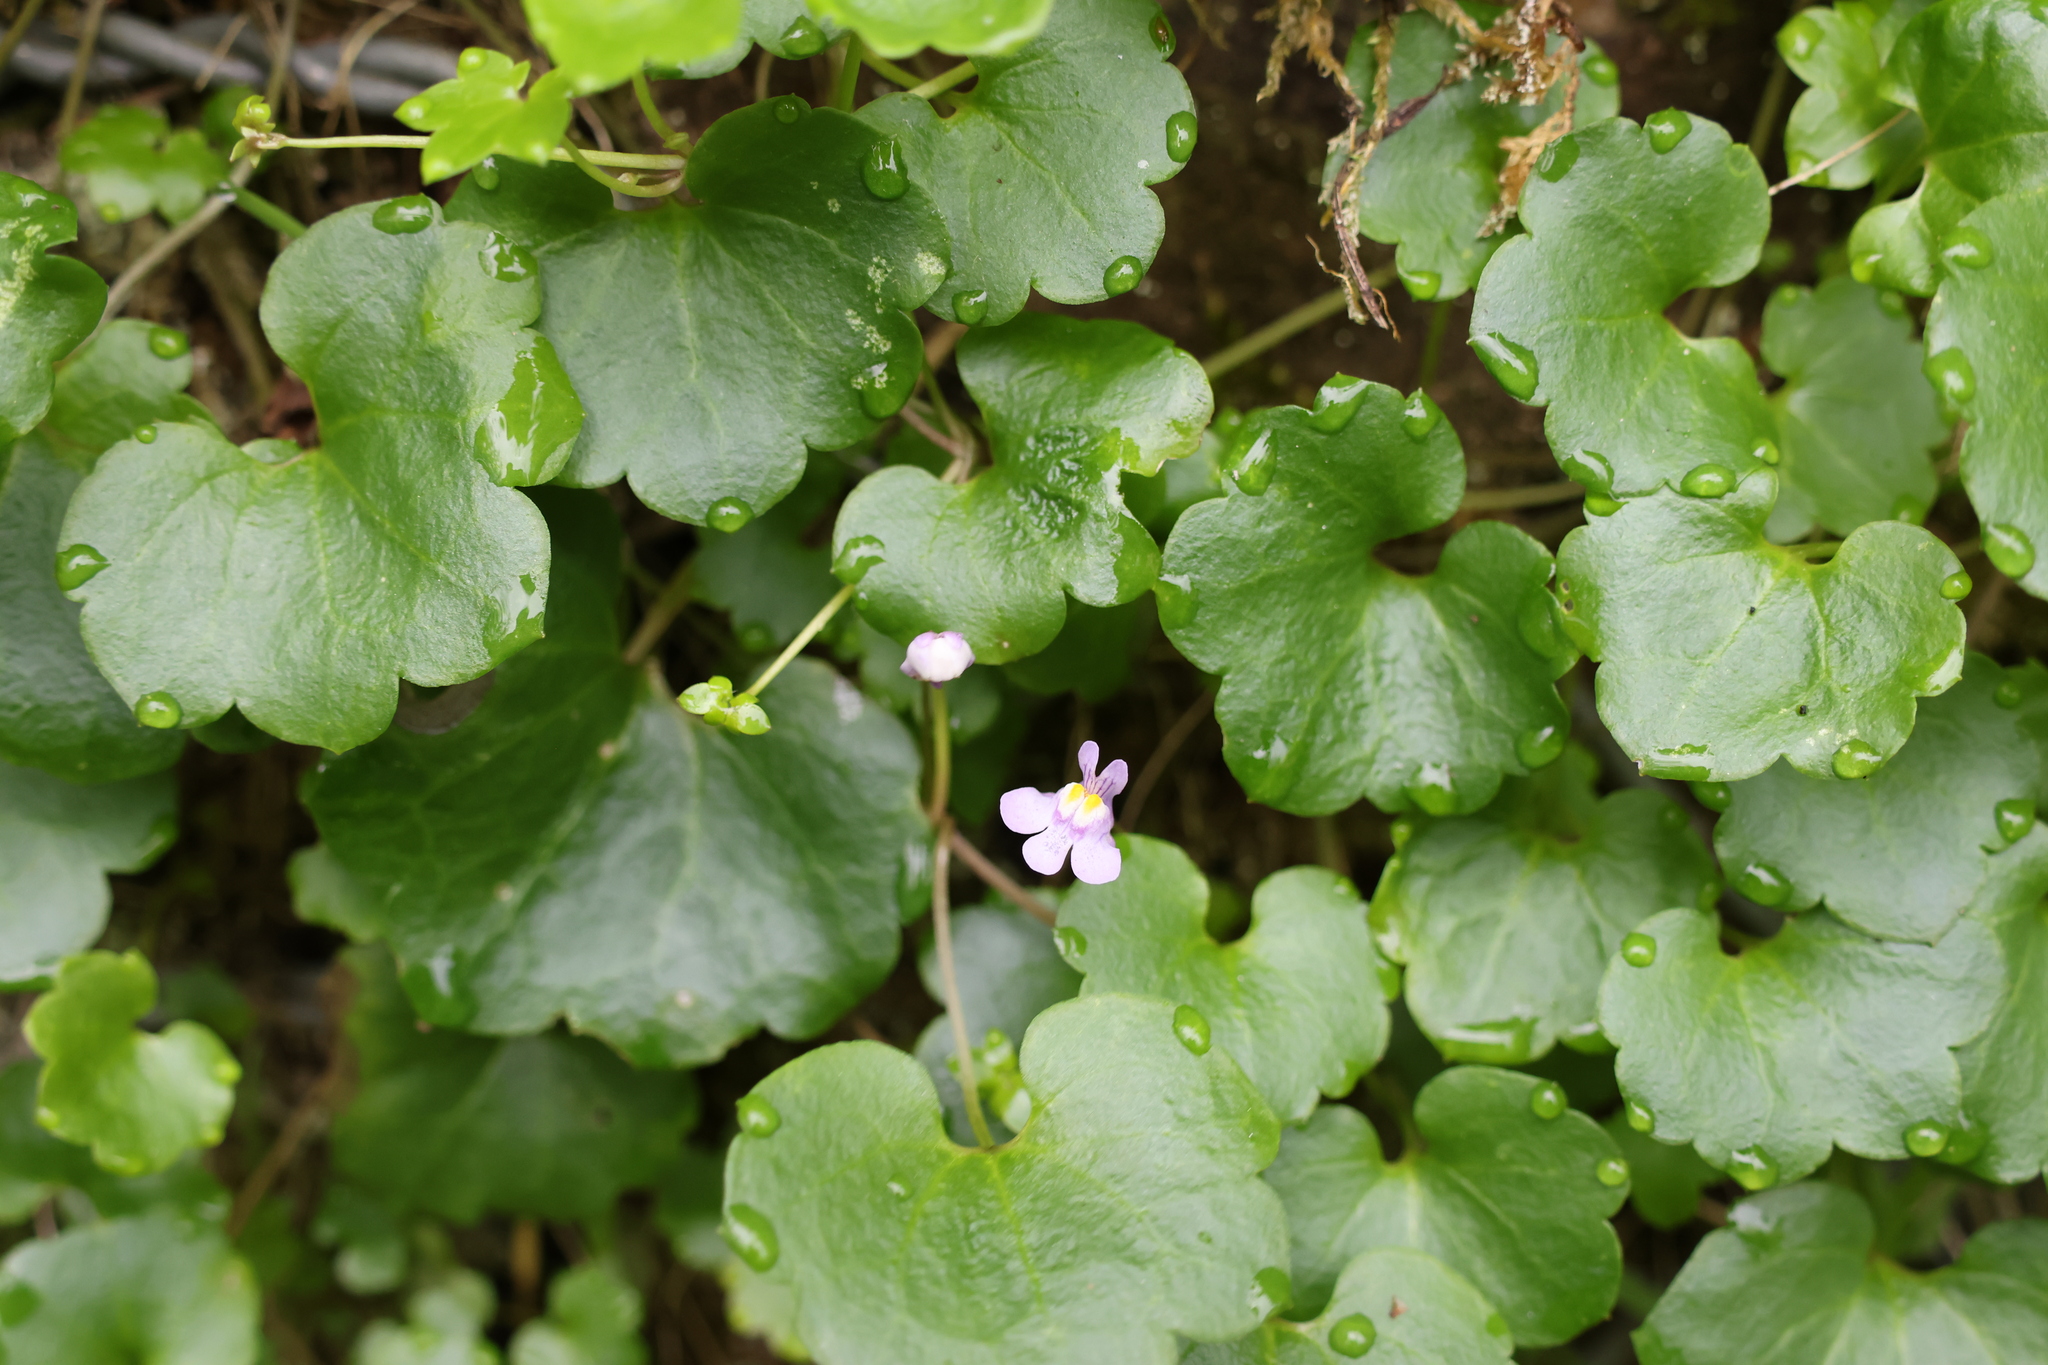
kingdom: Plantae
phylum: Tracheophyta
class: Magnoliopsida
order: Lamiales
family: Plantaginaceae
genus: Cymbalaria
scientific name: Cymbalaria muralis
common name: Ivy-leaved toadflax
